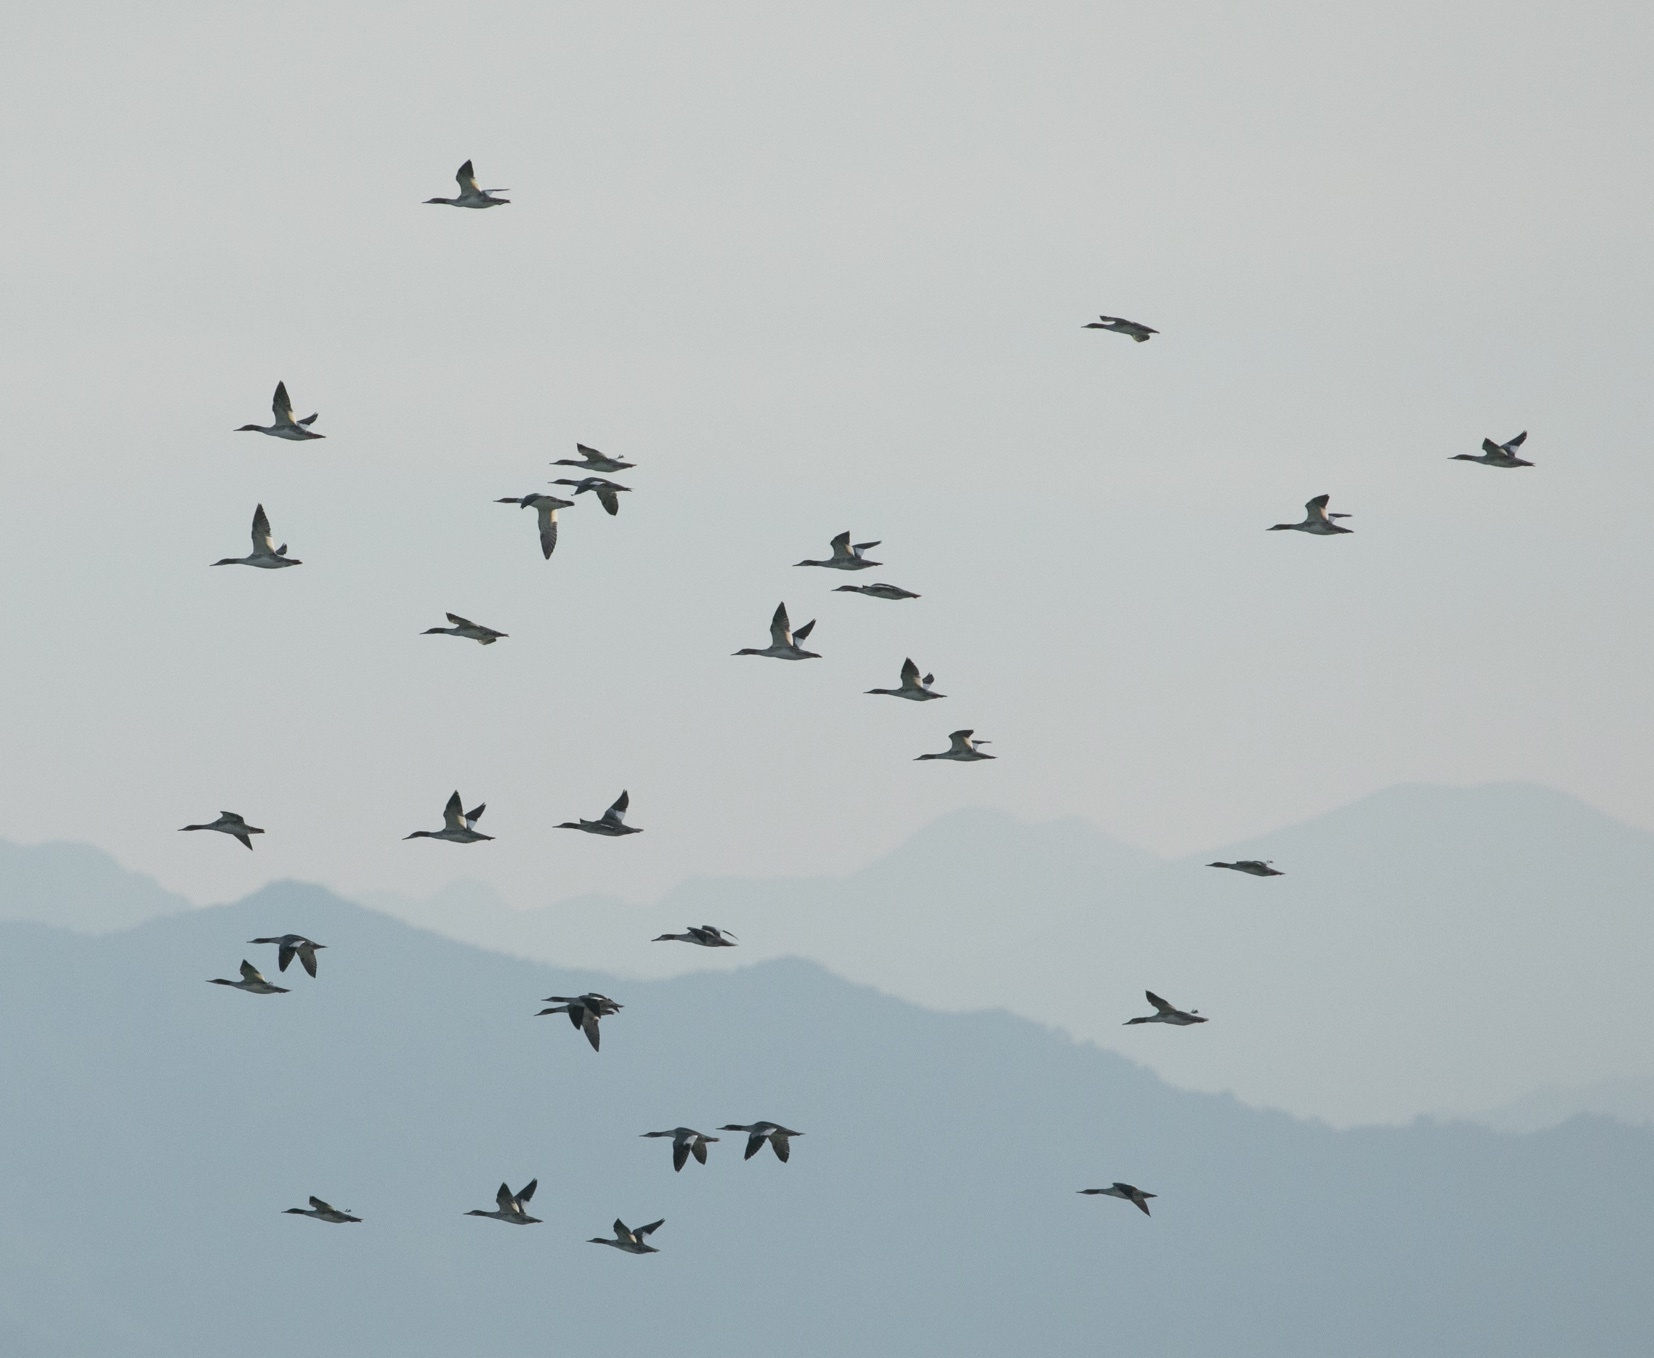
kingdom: Animalia
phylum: Chordata
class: Aves
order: Anseriformes
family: Anatidae
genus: Mergus
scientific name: Mergus merganser
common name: Common merganser
